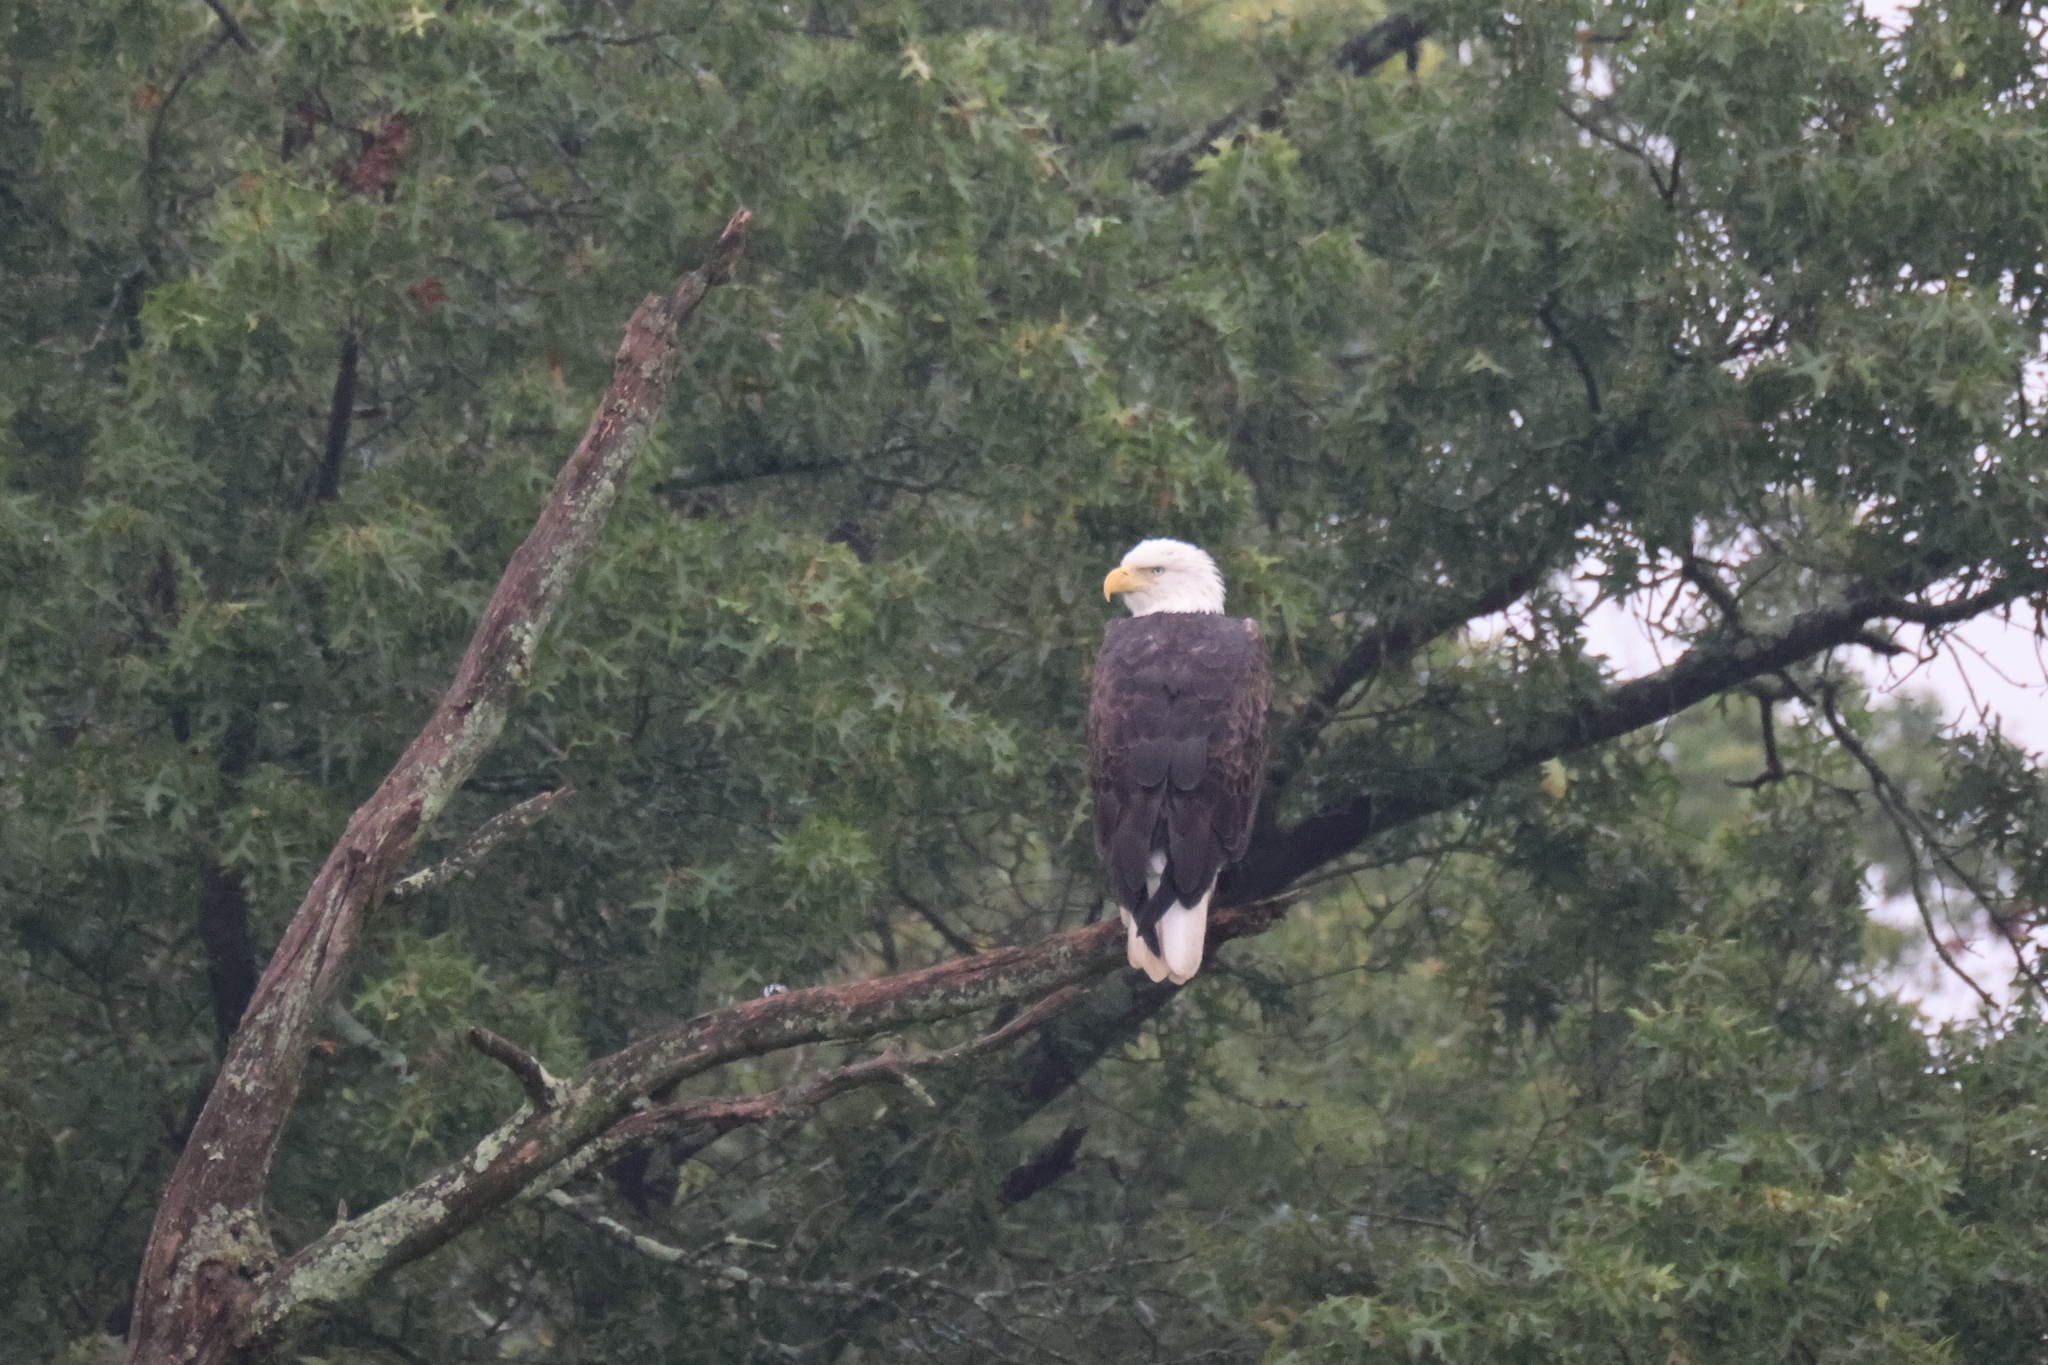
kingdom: Animalia
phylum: Chordata
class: Aves
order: Accipitriformes
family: Accipitridae
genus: Haliaeetus
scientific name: Haliaeetus leucocephalus
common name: Bald eagle
